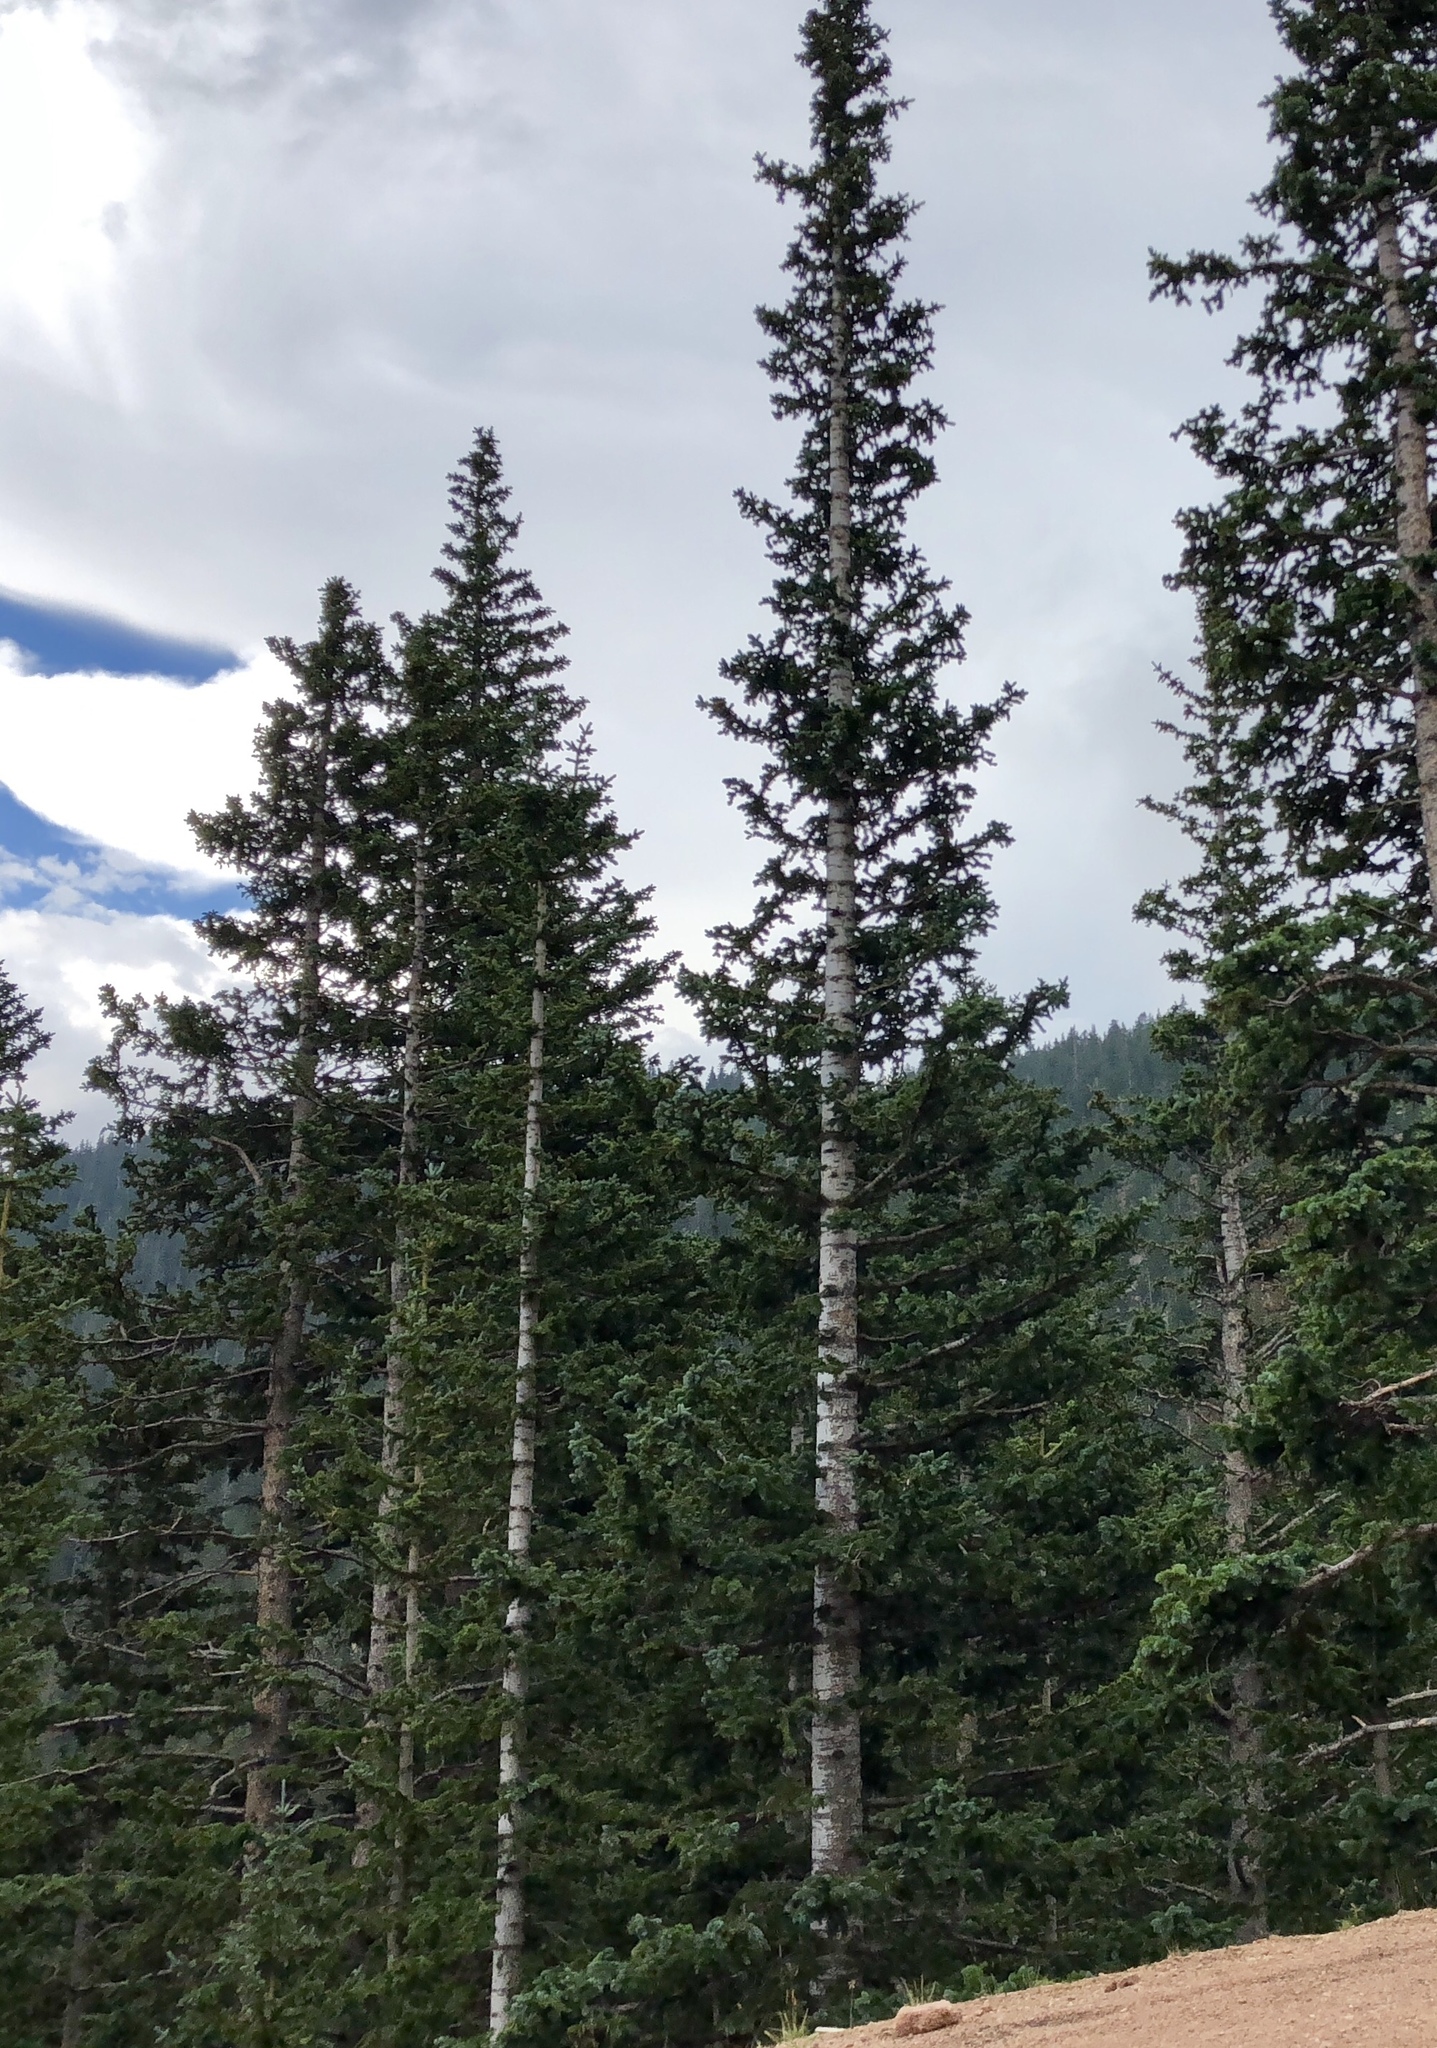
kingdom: Plantae
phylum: Tracheophyta
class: Pinopsida
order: Pinales
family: Pinaceae
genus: Abies
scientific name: Abies lasiocarpa
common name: Subalpine fir
